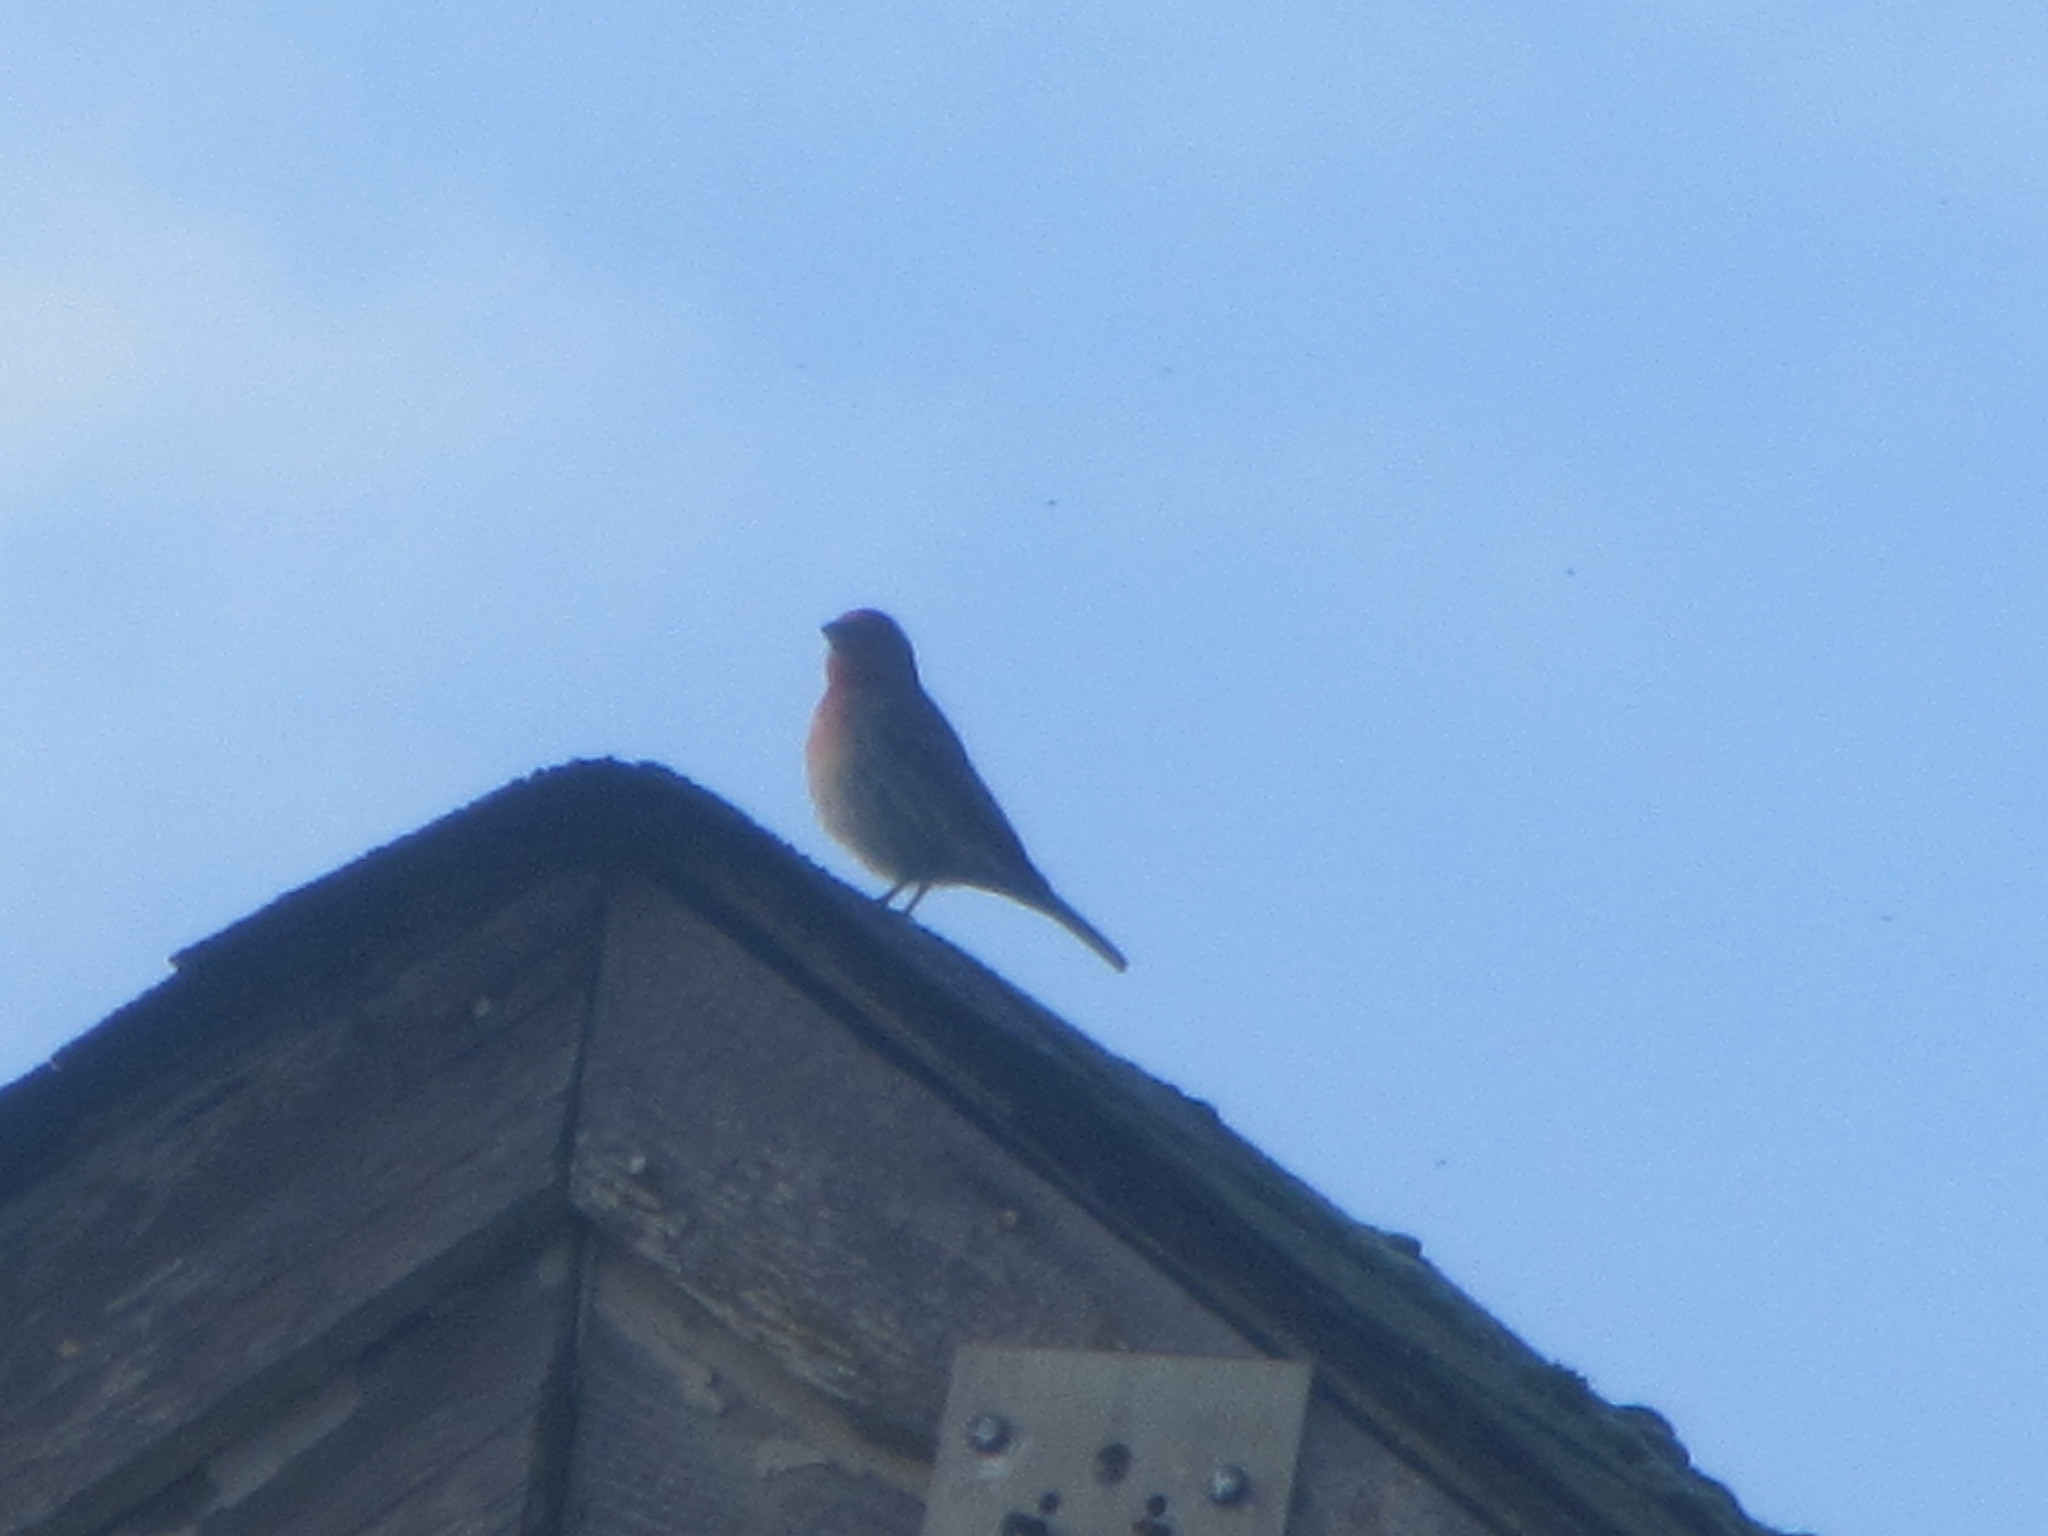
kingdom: Animalia
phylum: Chordata
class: Aves
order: Passeriformes
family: Fringillidae
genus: Haemorhous
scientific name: Haemorhous mexicanus
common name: House finch
